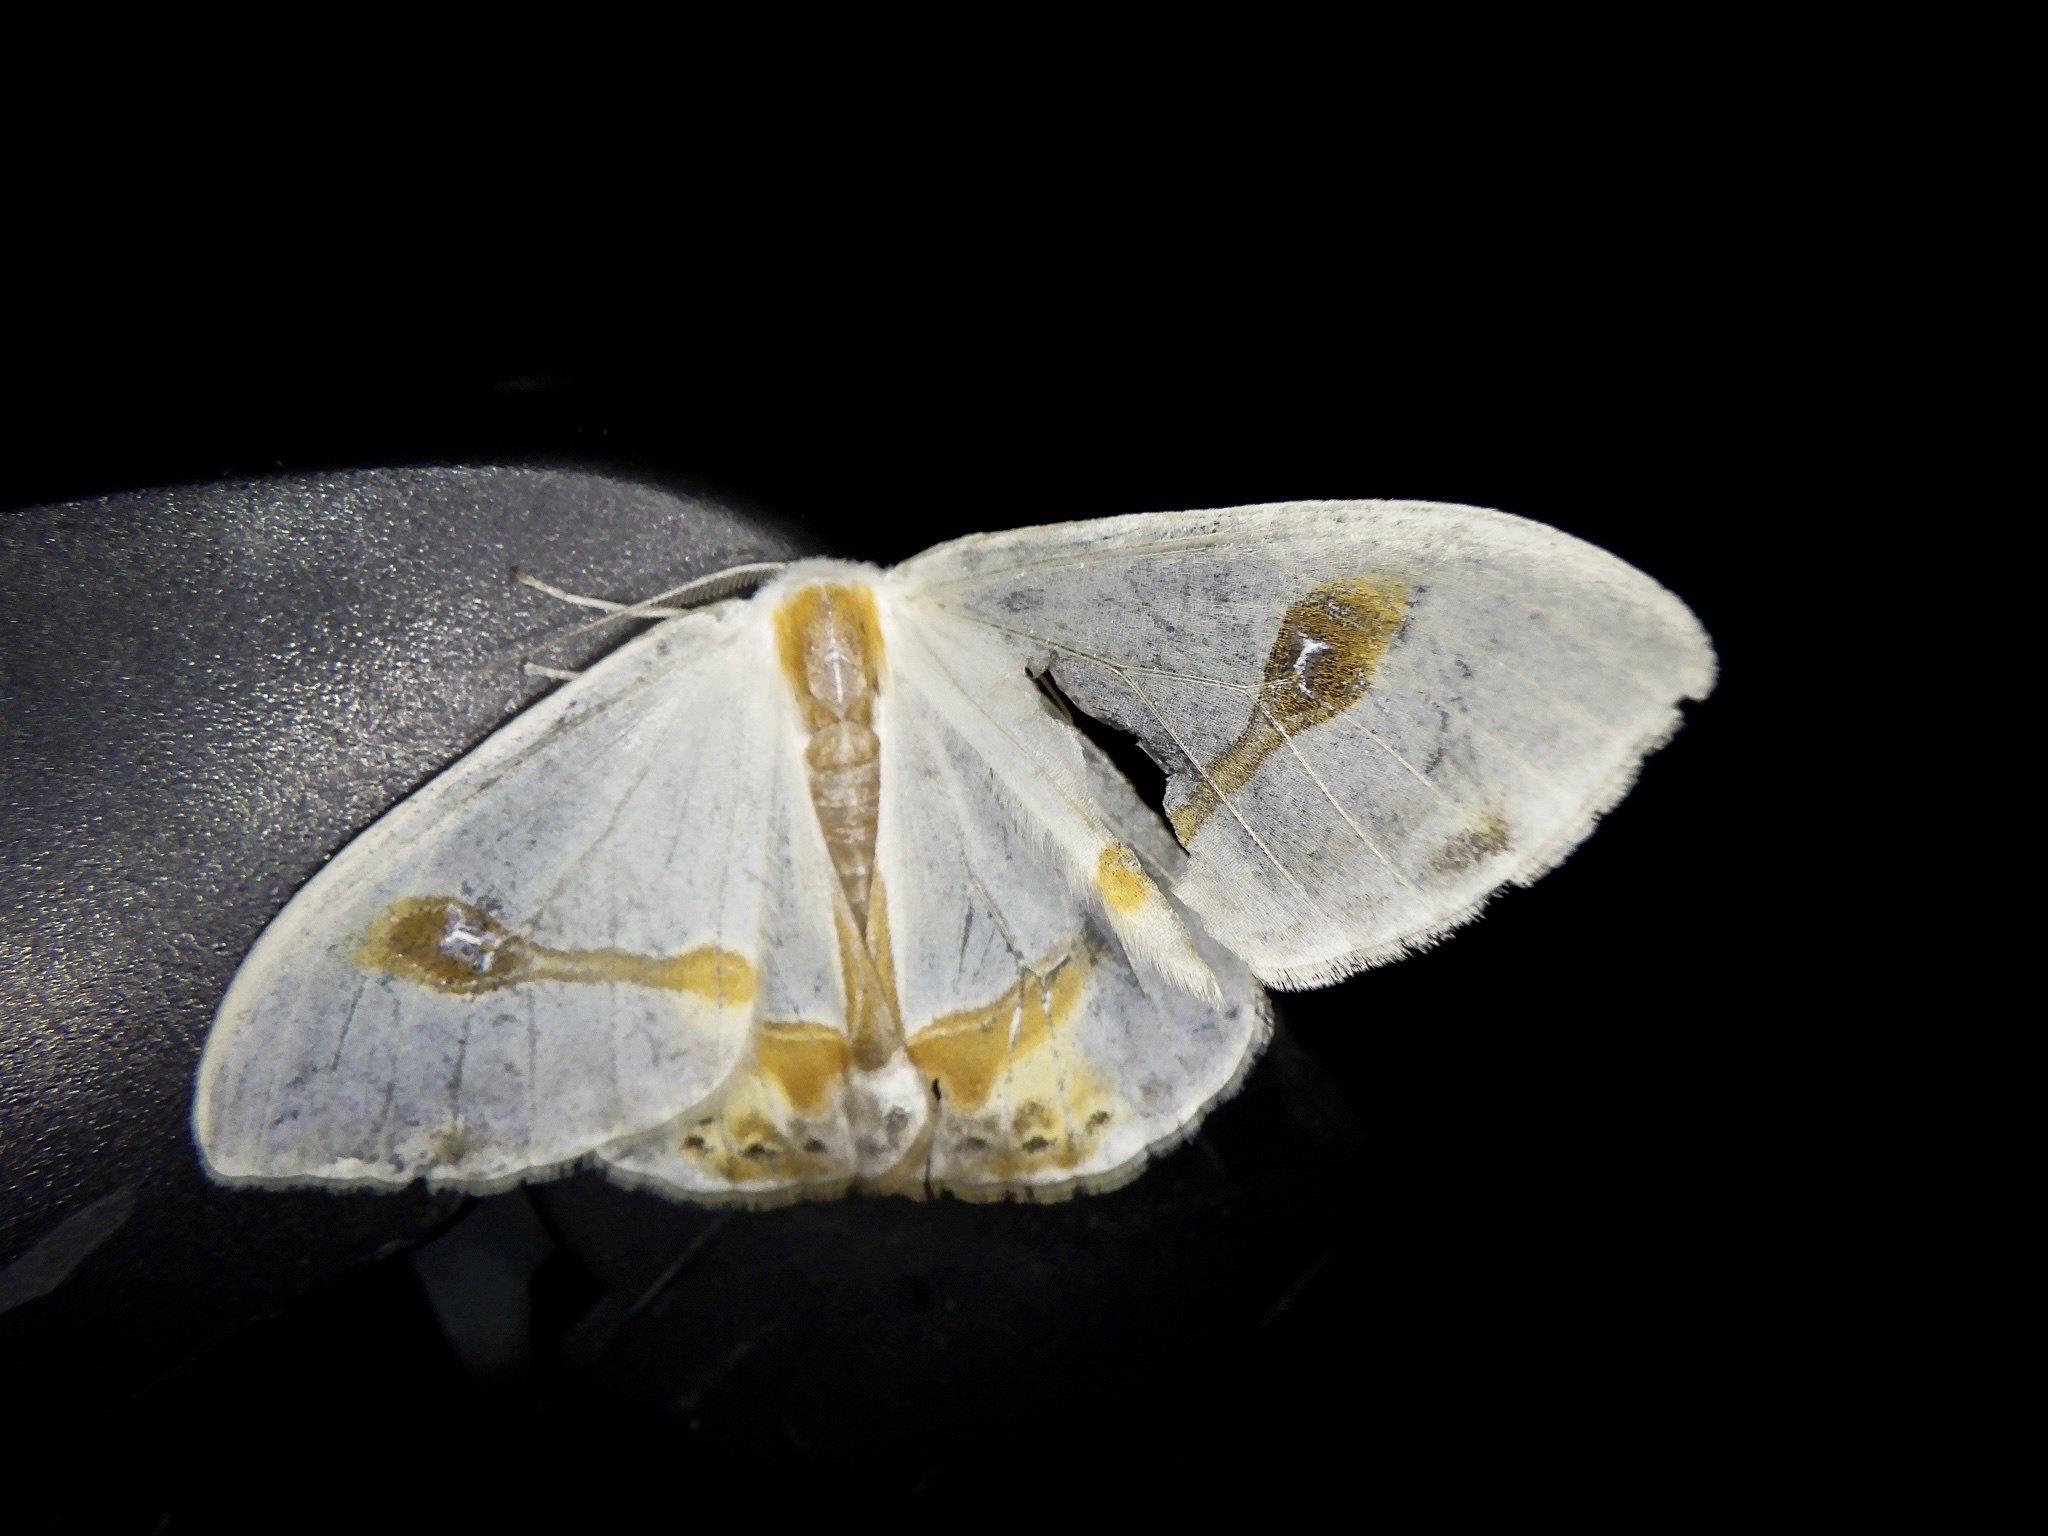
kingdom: Animalia
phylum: Arthropoda
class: Insecta
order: Lepidoptera
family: Drepanidae
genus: Macrocilix
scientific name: Macrocilix mysticata
